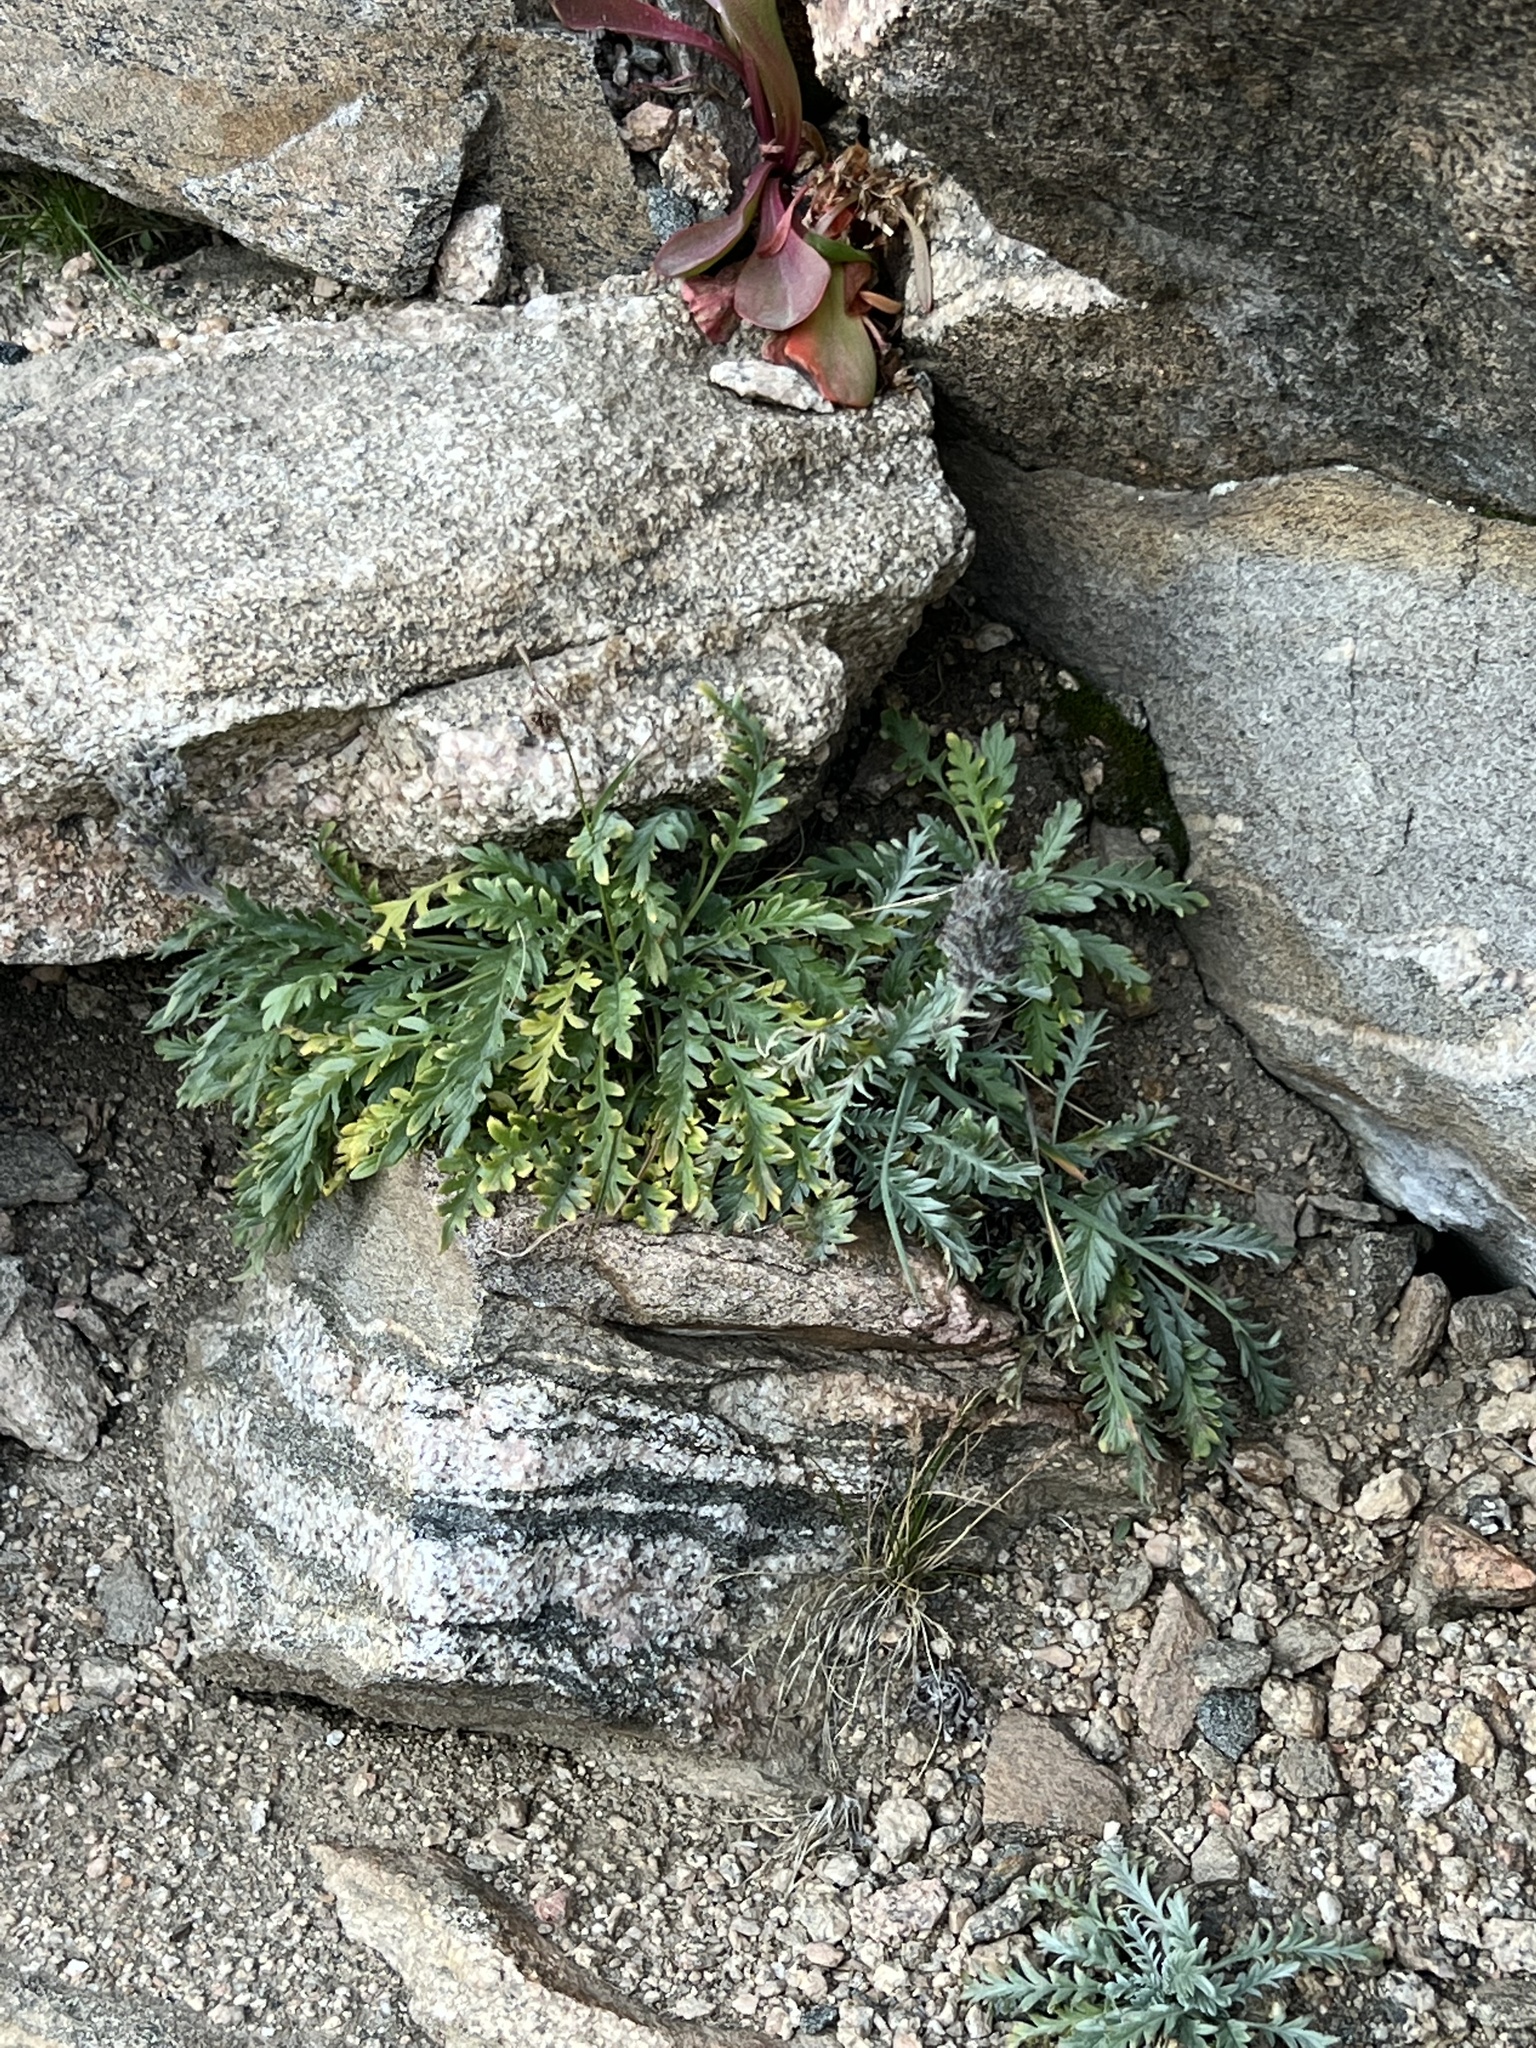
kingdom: Plantae
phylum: Tracheophyta
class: Magnoliopsida
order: Boraginales
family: Hydrophyllaceae
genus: Phacelia
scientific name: Phacelia sericea
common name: Silky phacelia
